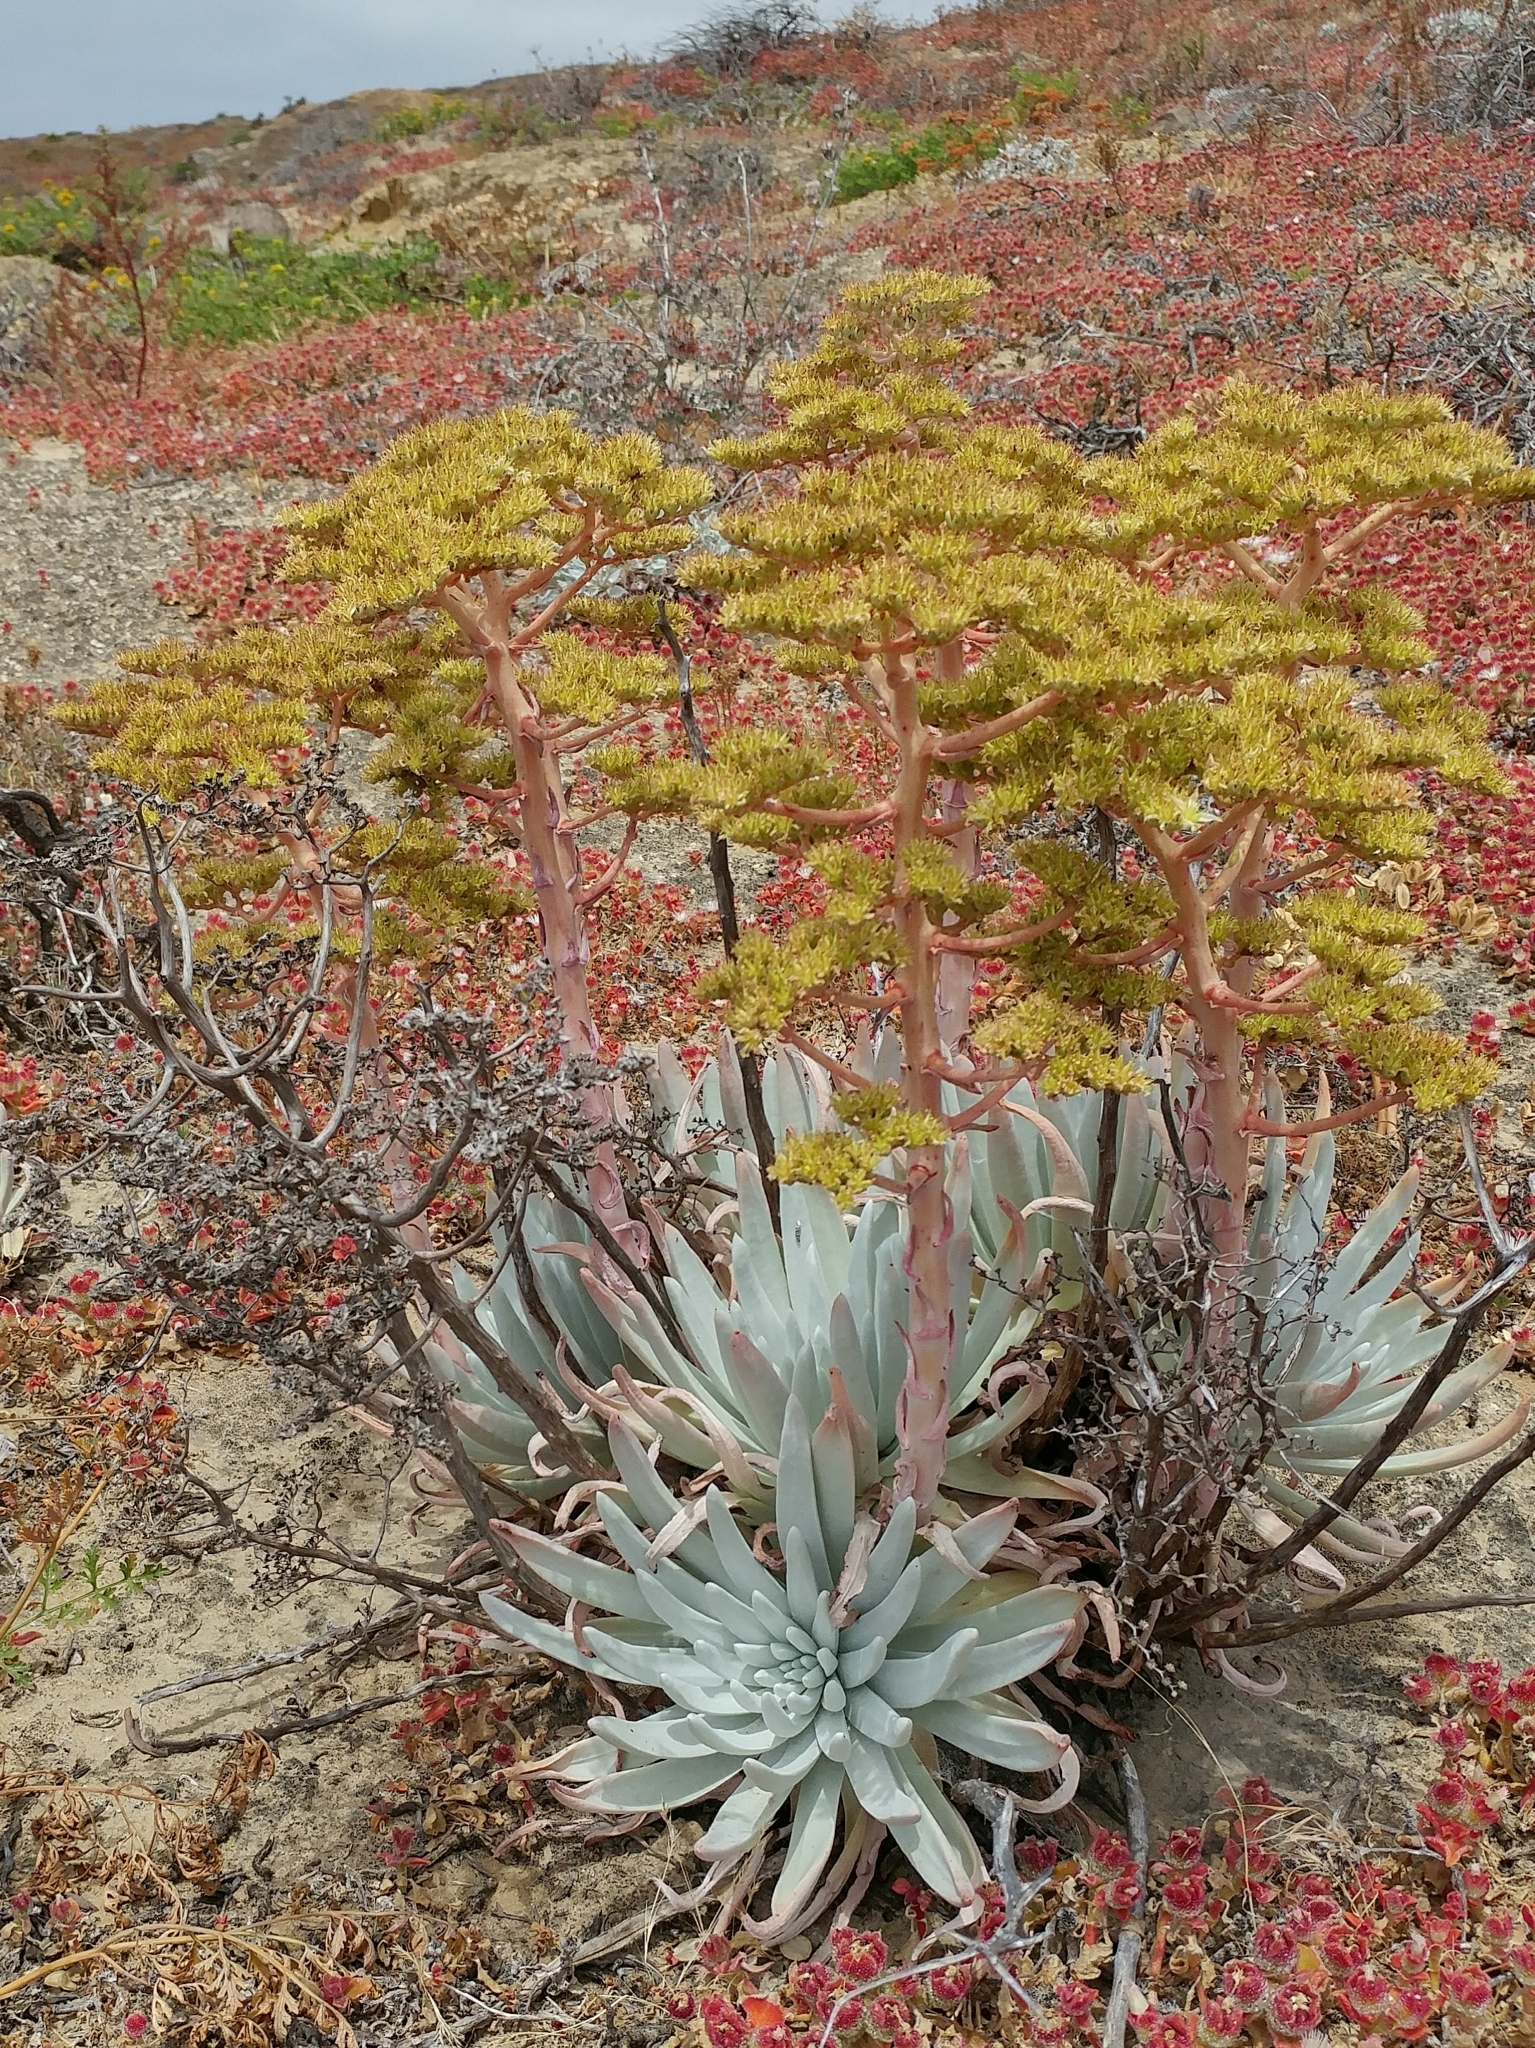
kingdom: Plantae
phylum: Tracheophyta
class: Magnoliopsida
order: Saxifragales
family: Crassulaceae
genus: Dudleya
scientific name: Dudleya virens
